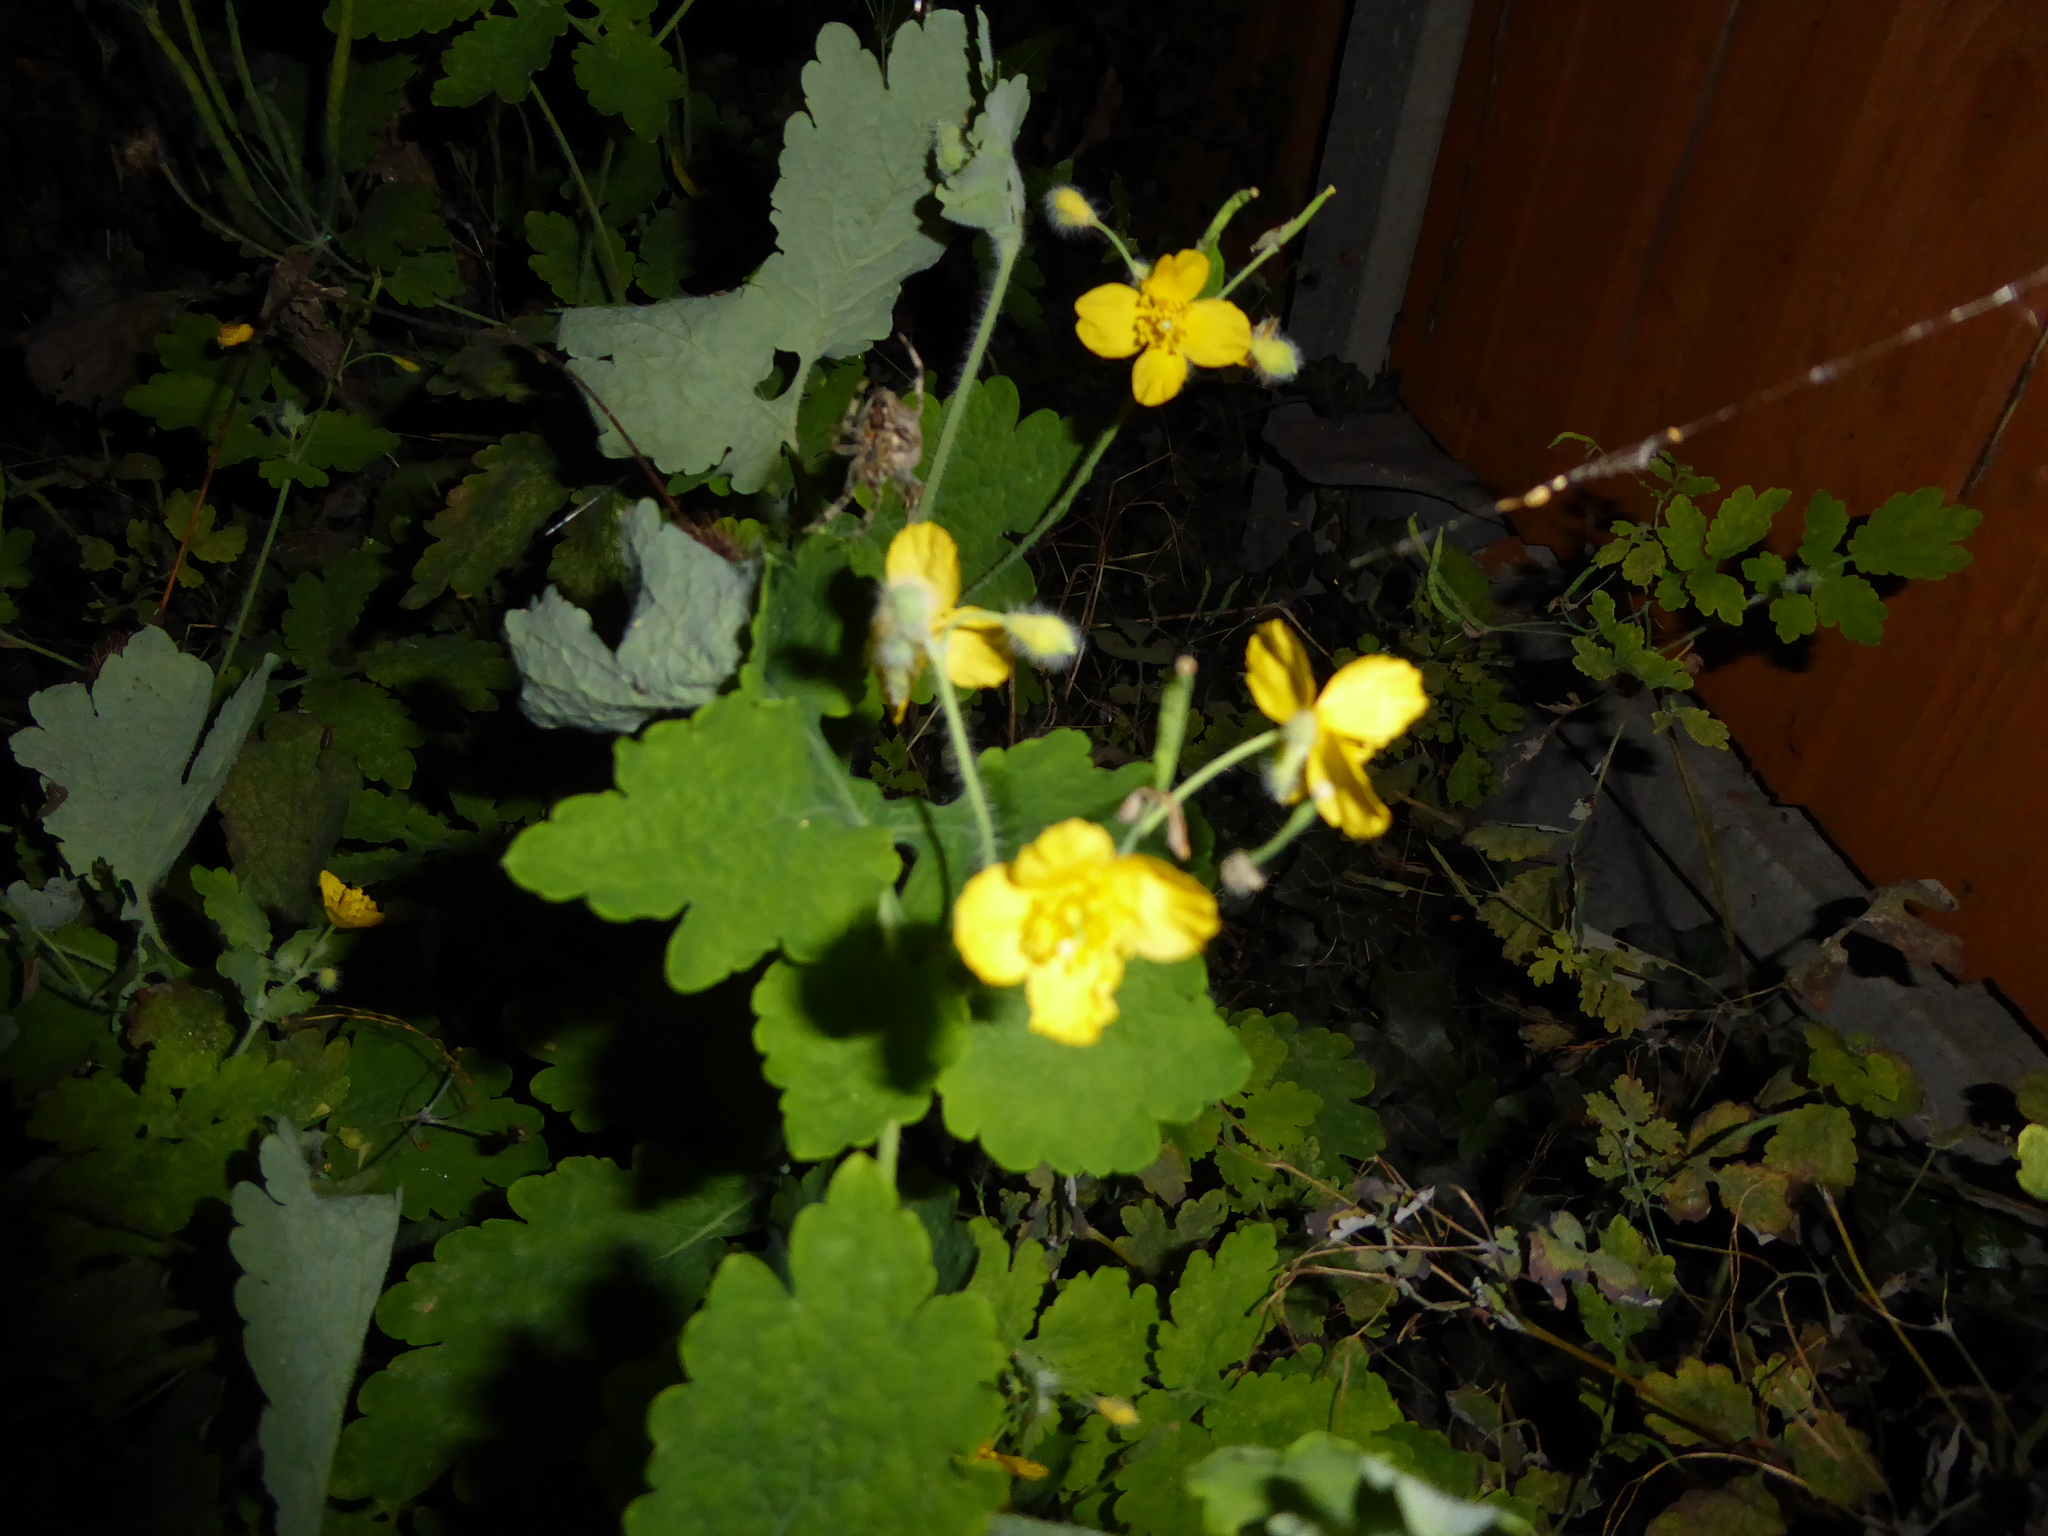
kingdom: Plantae
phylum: Tracheophyta
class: Magnoliopsida
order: Ranunculales
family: Papaveraceae
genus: Chelidonium
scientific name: Chelidonium majus
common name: Greater celandine
